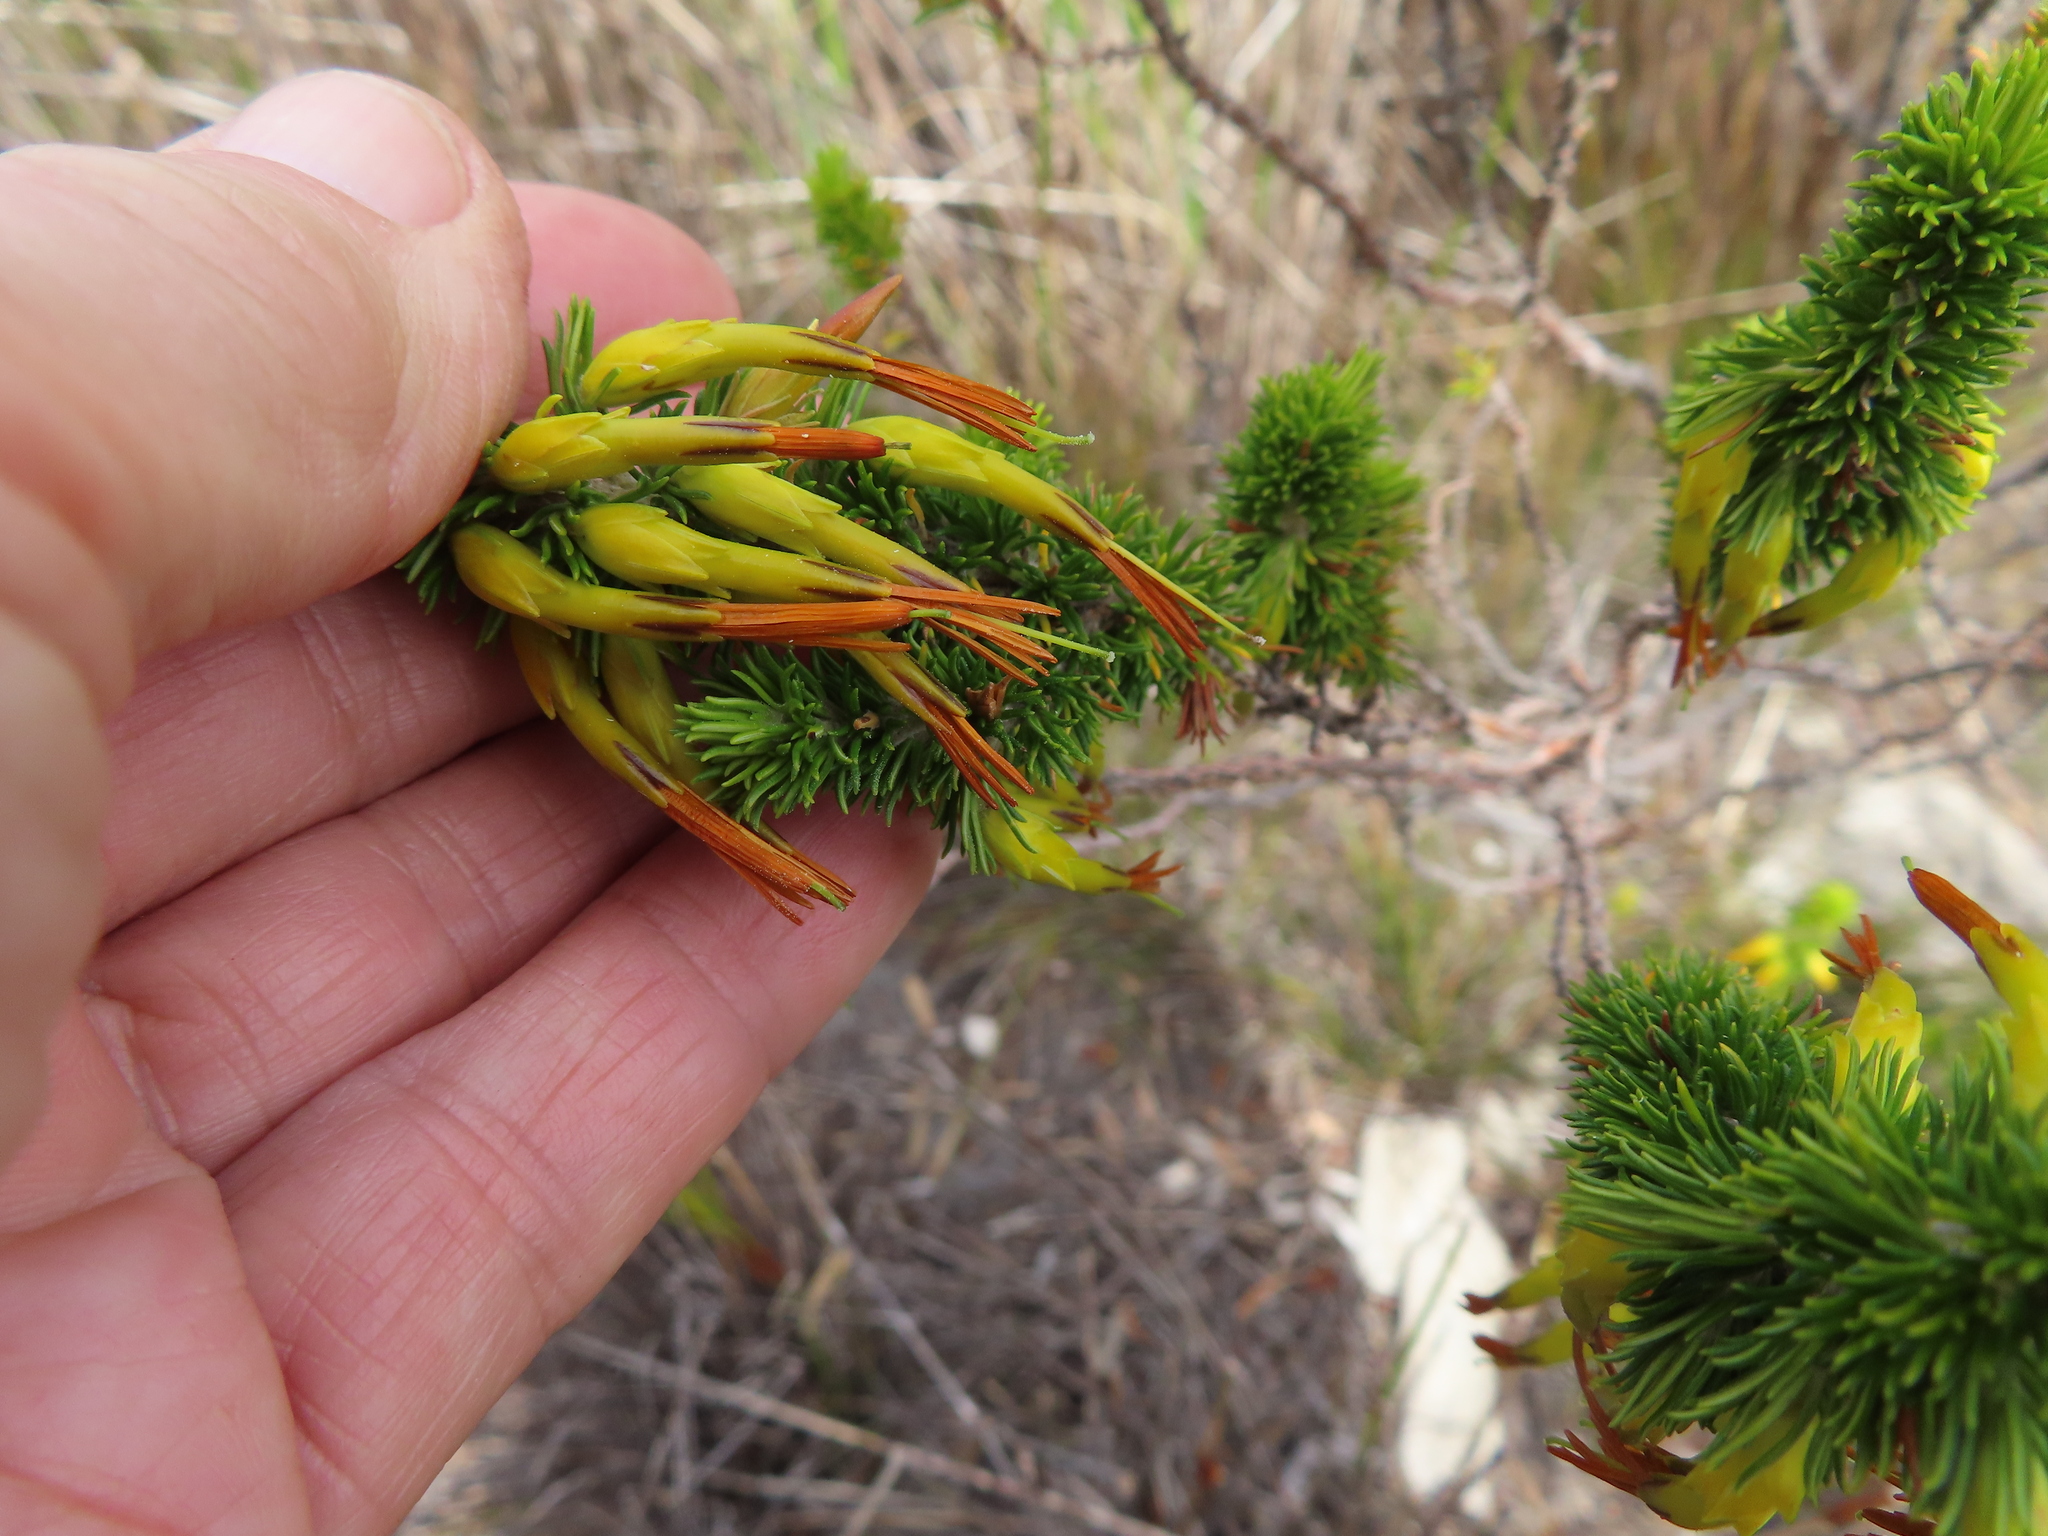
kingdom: Plantae
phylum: Tracheophyta
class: Magnoliopsida
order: Ericales
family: Ericaceae
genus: Erica
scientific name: Erica coccinea
